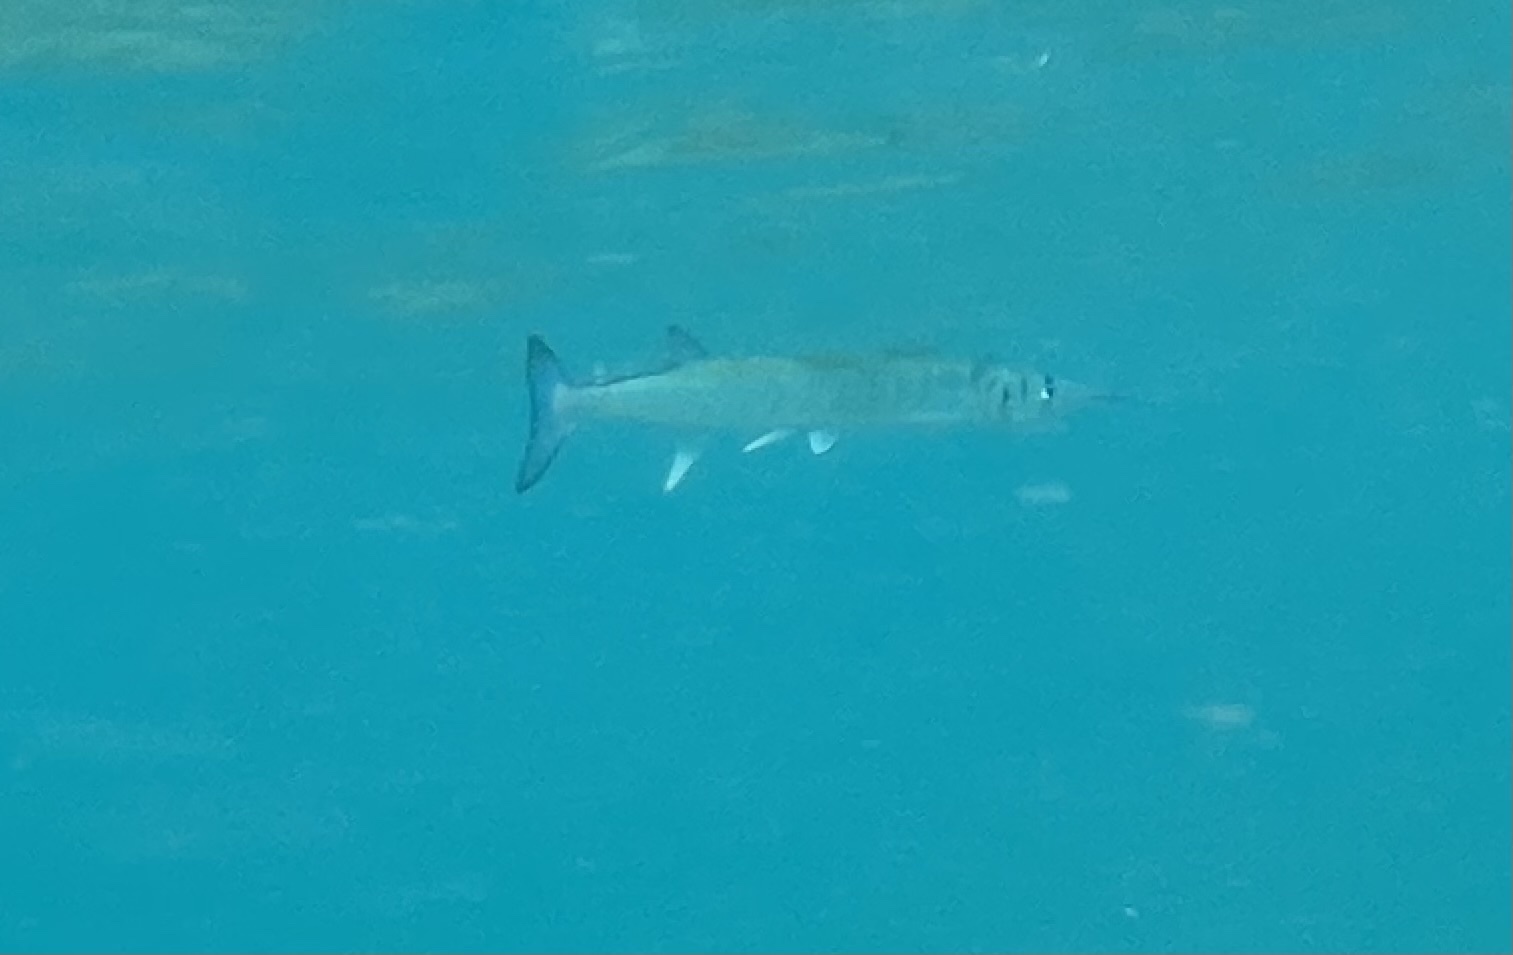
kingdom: Animalia
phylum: Chordata
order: Beloniformes
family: Belonidae
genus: Tylosurus
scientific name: Tylosurus crocodilus
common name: Houndfish
